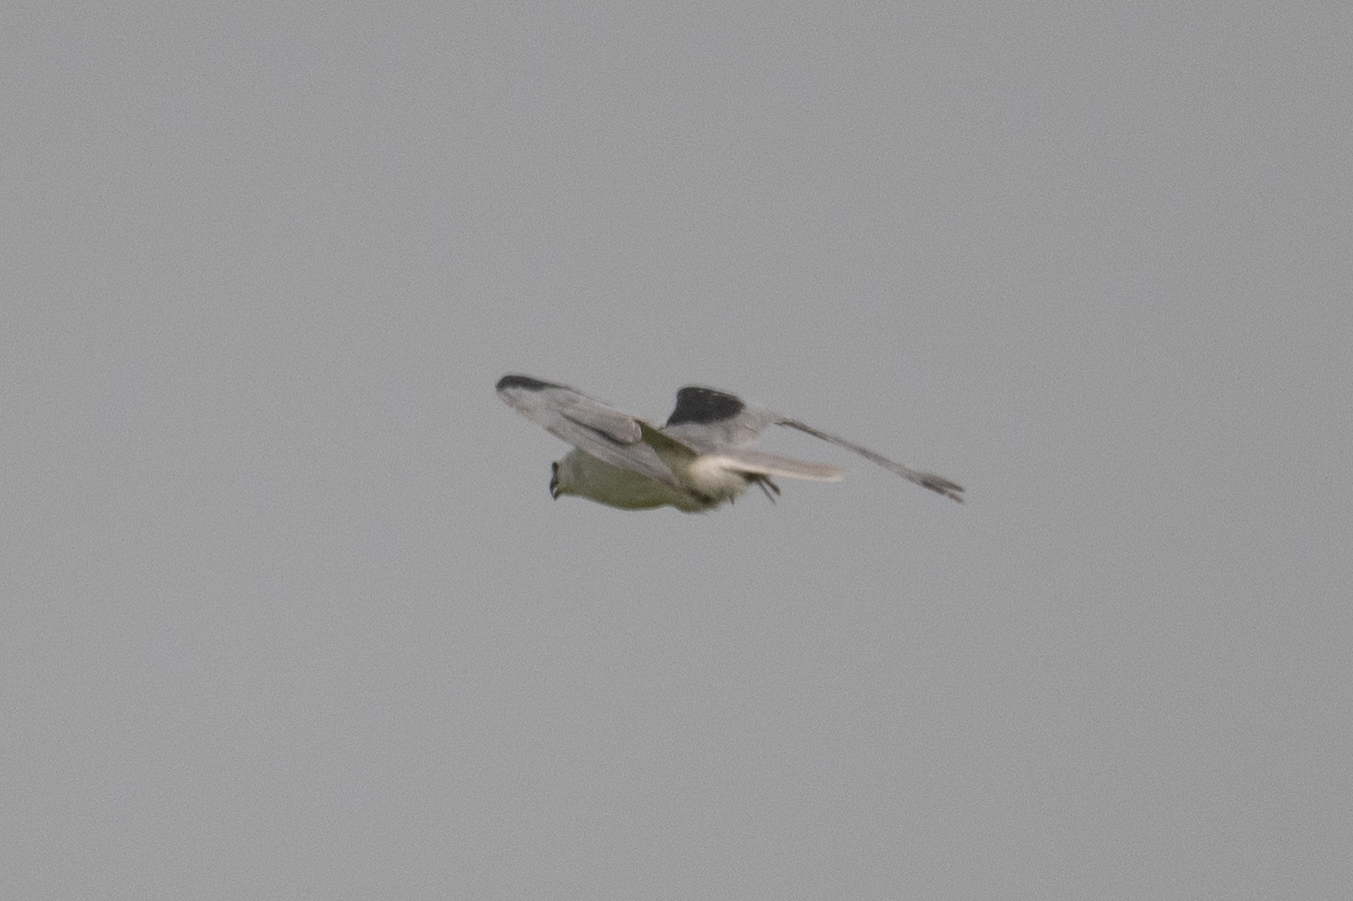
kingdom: Animalia
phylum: Chordata
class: Aves
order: Accipitriformes
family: Accipitridae
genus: Elanus
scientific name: Elanus leucurus
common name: White-tailed kite
